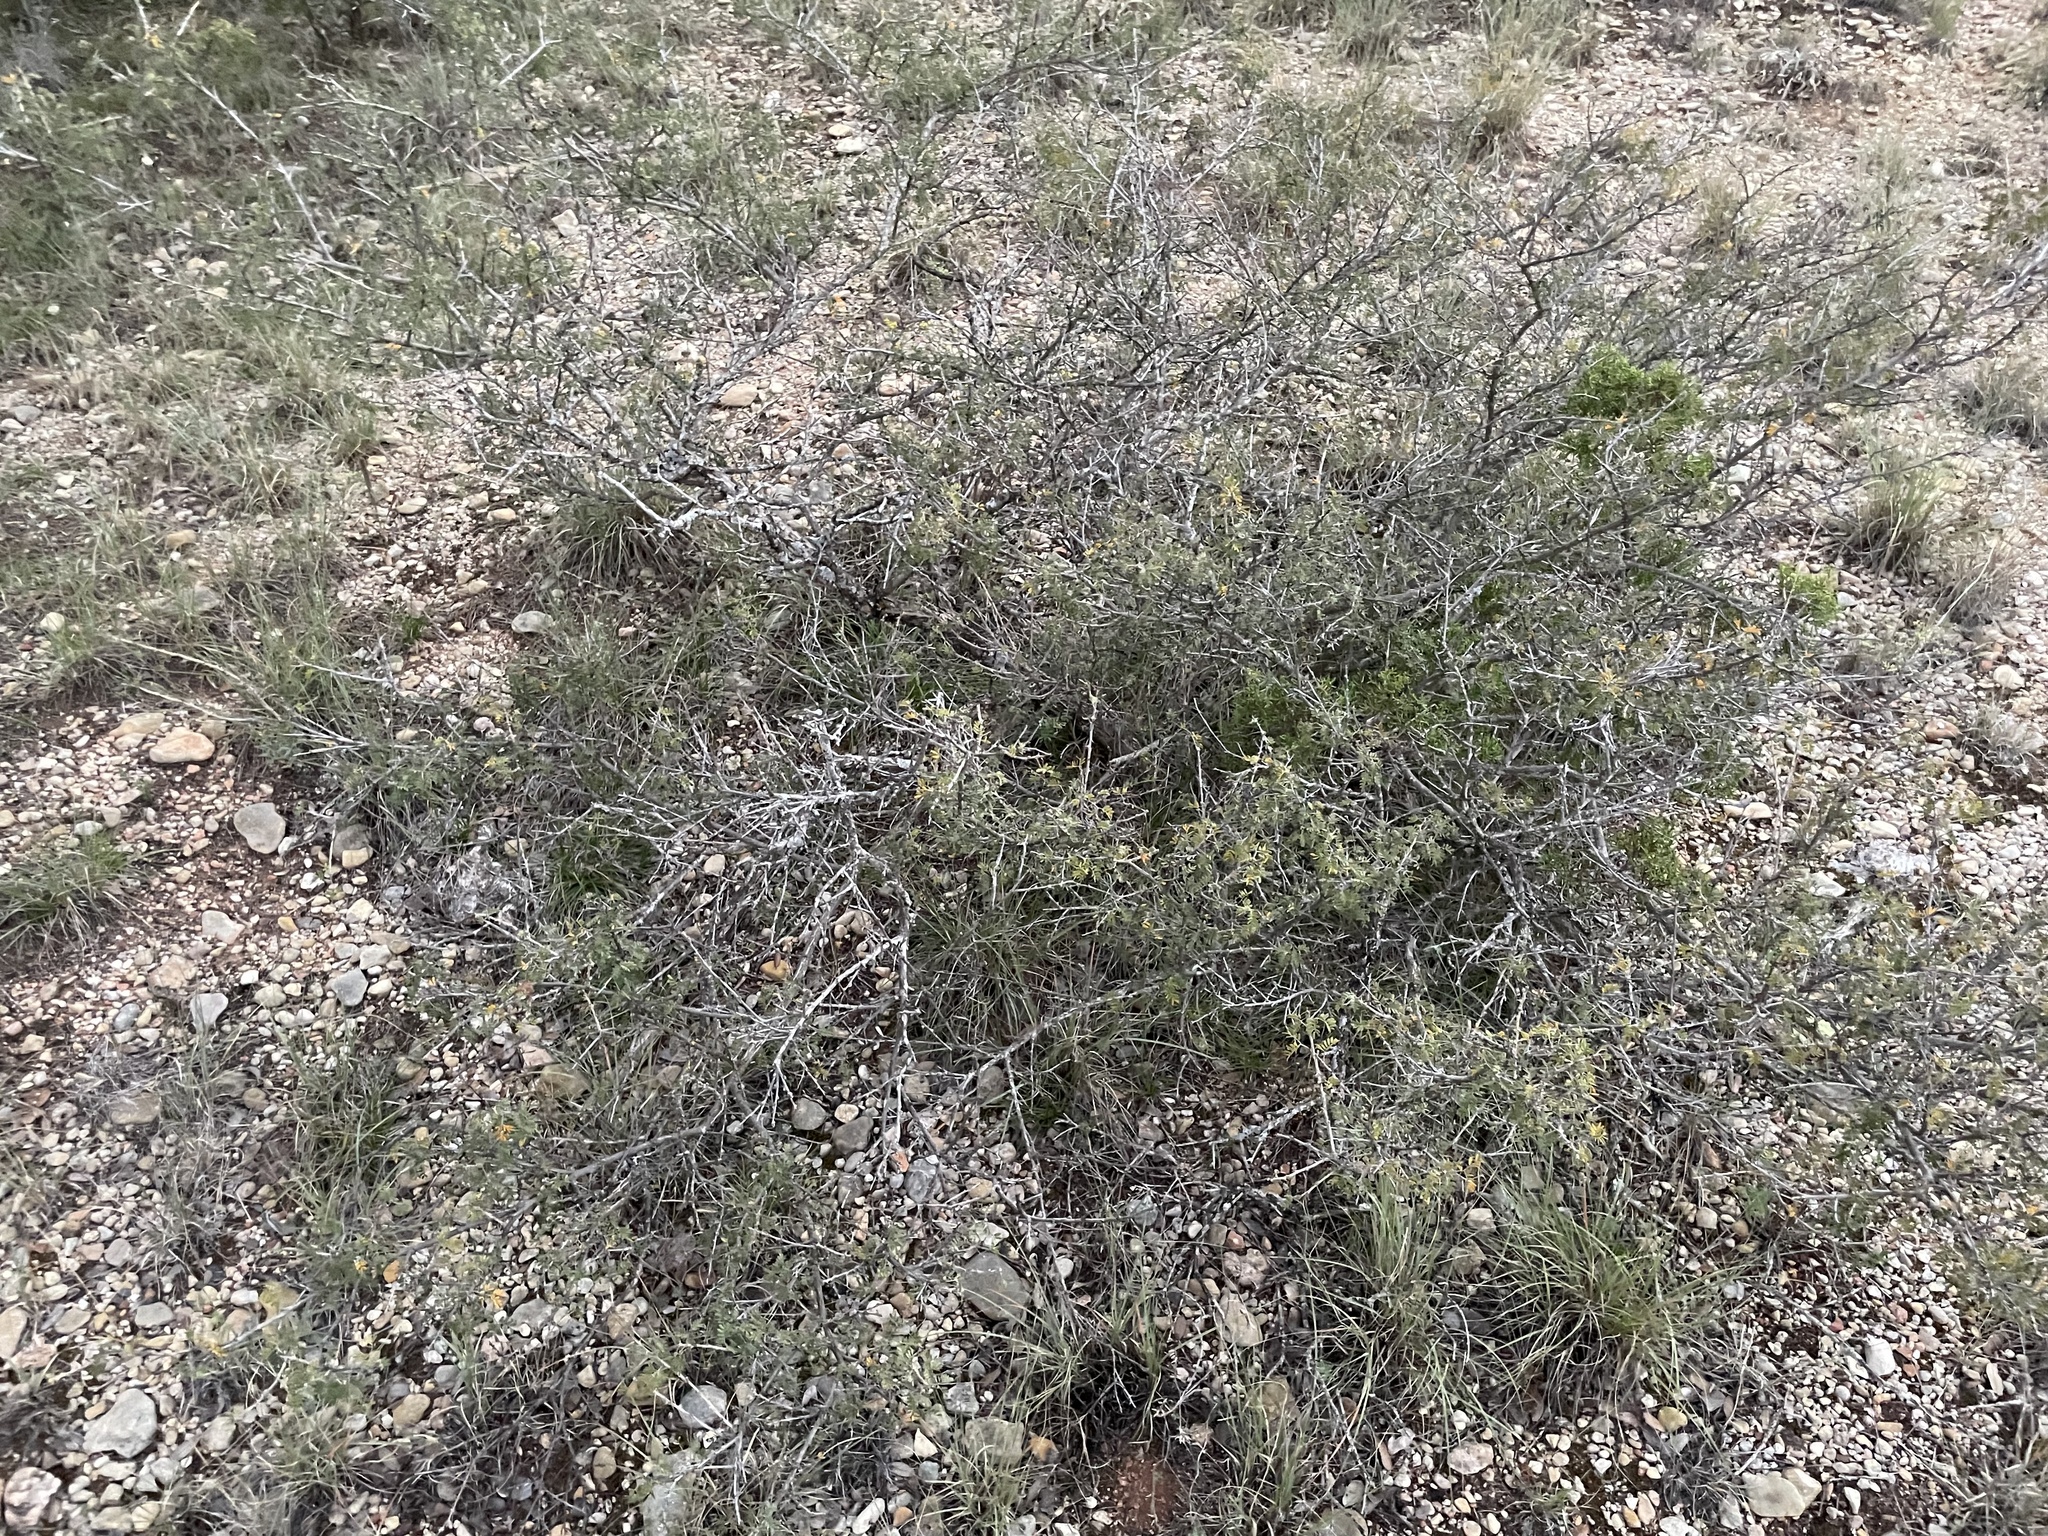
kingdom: Plantae
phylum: Tracheophyta
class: Magnoliopsida
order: Fabales
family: Fabaceae
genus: Mimosa
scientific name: Mimosa borealis
